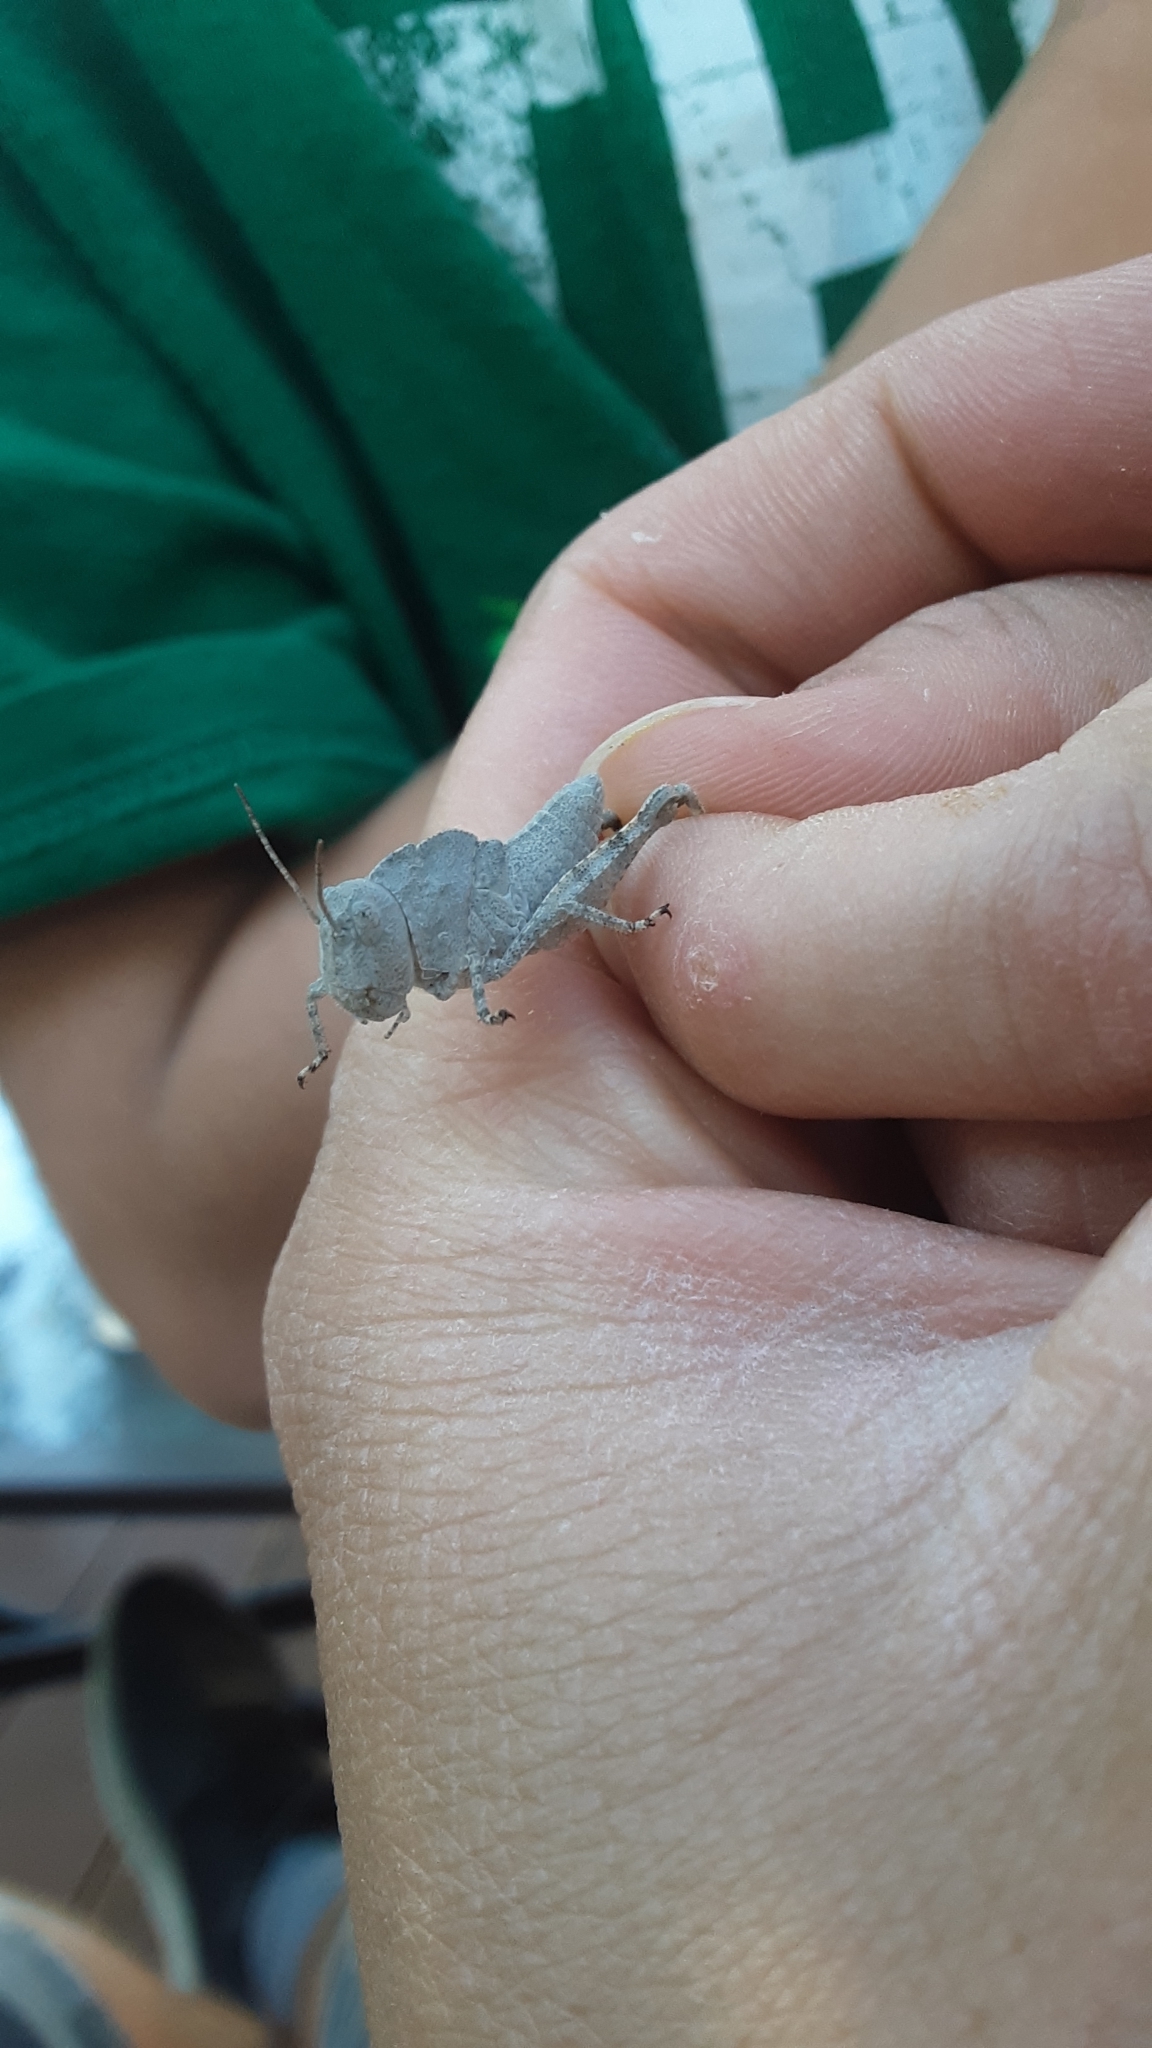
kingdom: Animalia
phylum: Arthropoda
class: Insecta
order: Orthoptera
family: Acrididae
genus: Dissosteira
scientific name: Dissosteira carolina
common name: Carolina grasshopper
